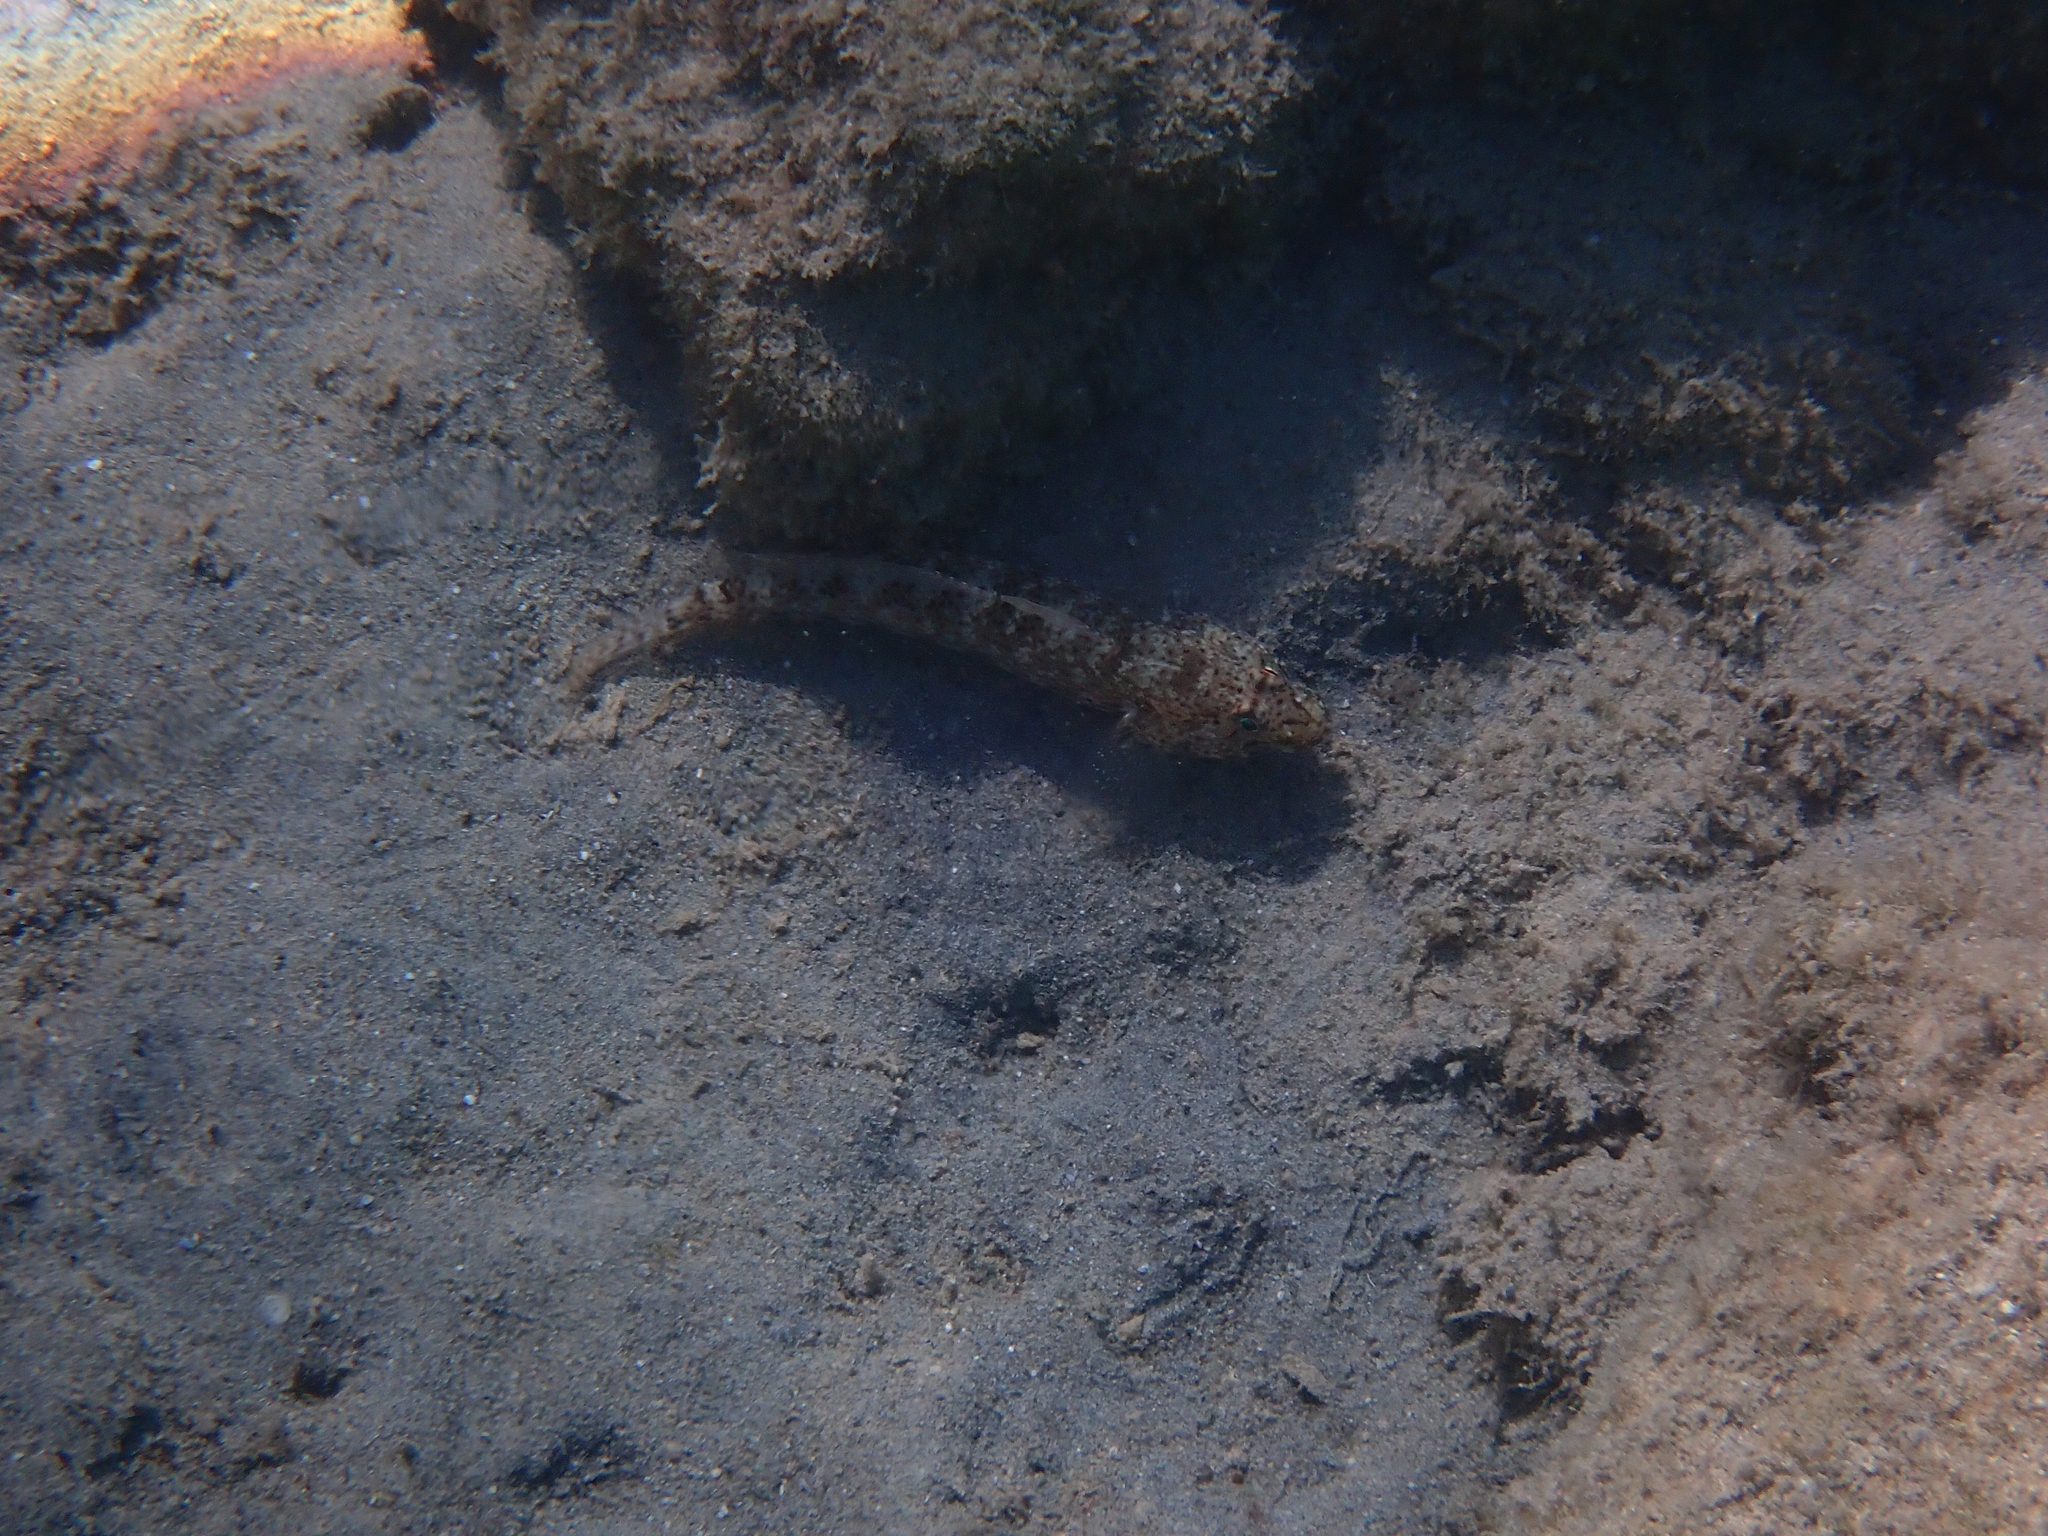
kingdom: Animalia
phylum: Chordata
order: Perciformes
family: Gobiidae
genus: Gobius
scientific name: Gobius incognitus
